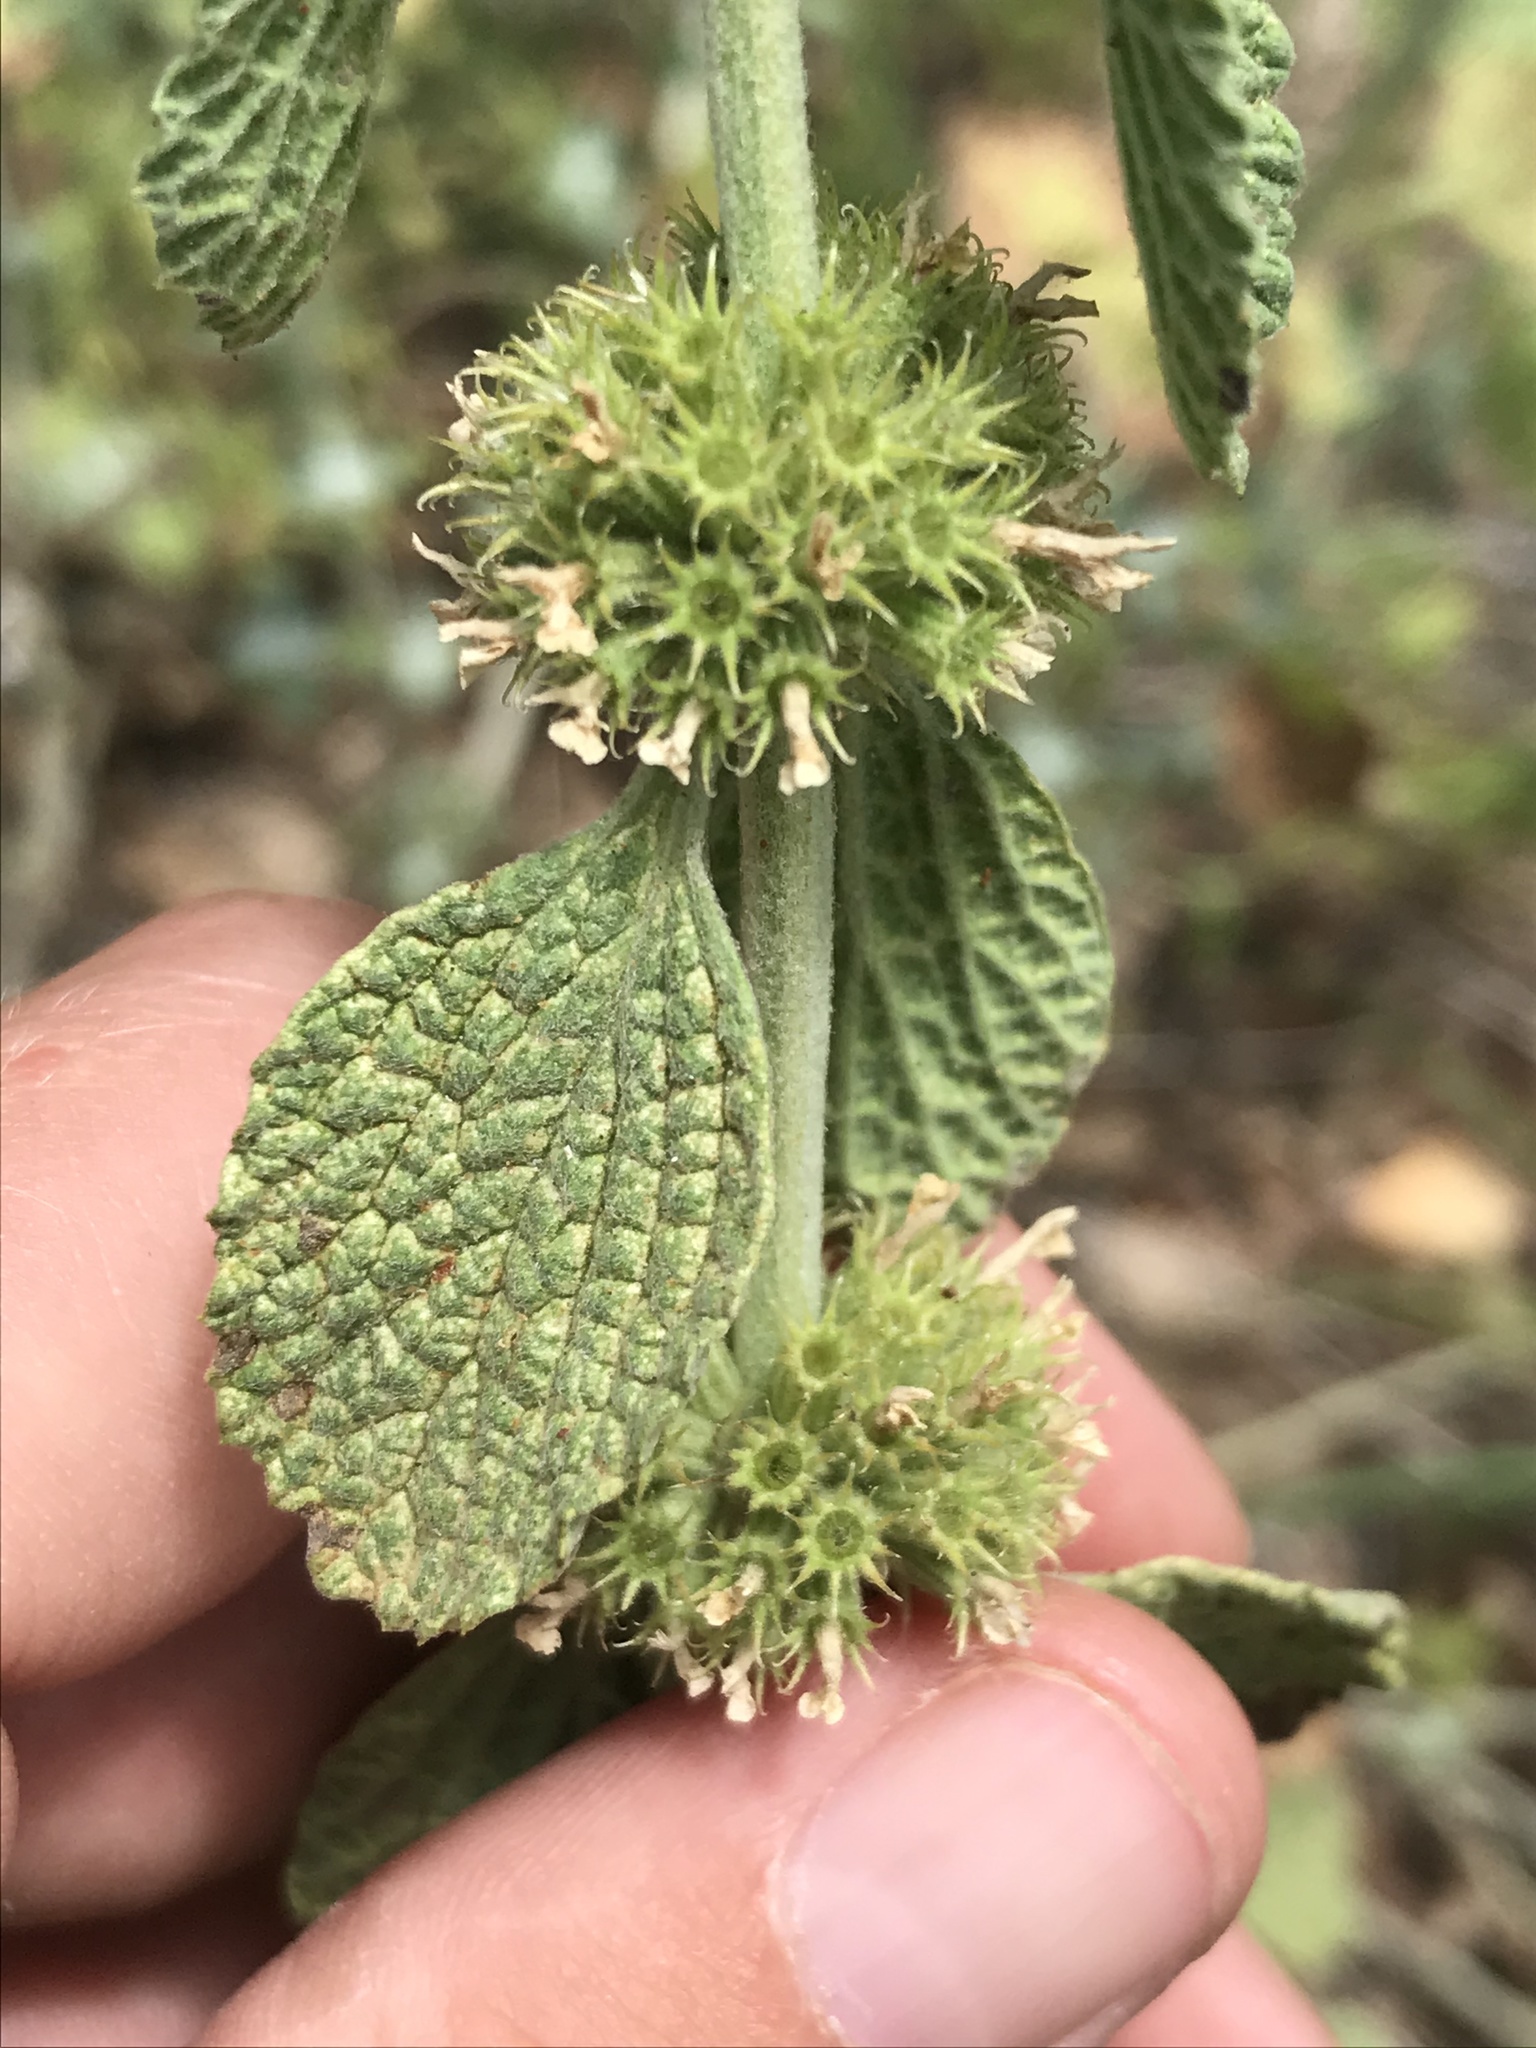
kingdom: Plantae
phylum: Tracheophyta
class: Magnoliopsida
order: Lamiales
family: Lamiaceae
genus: Marrubium
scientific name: Marrubium vulgare
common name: Horehound
